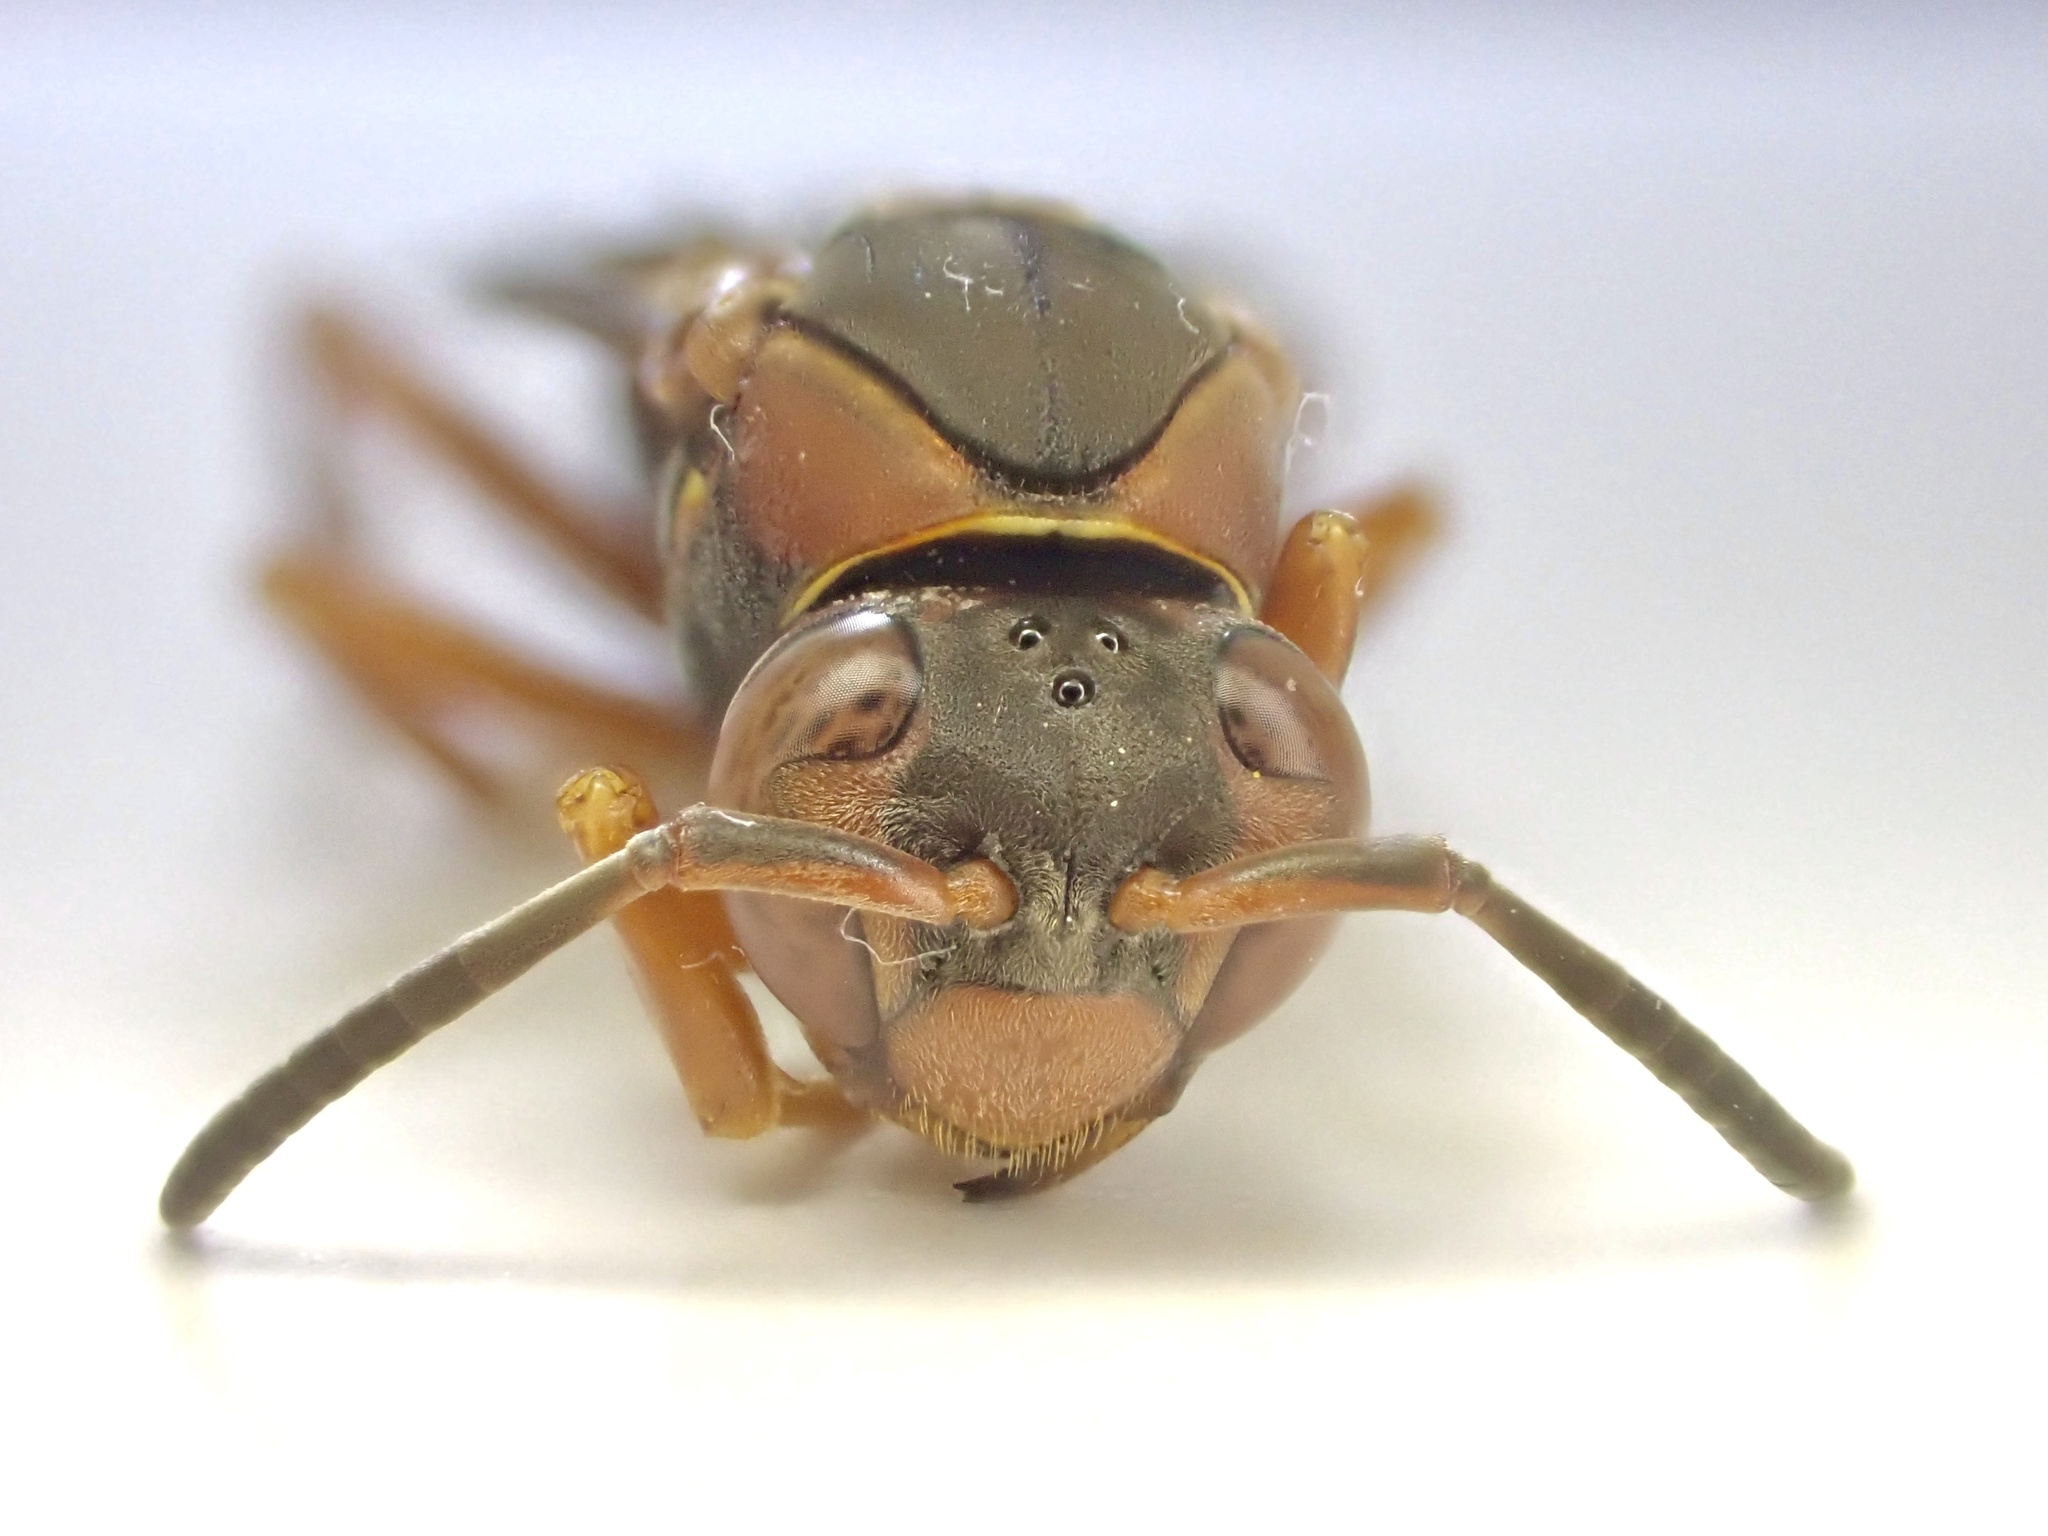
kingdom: Animalia
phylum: Arthropoda
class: Insecta
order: Hymenoptera
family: Eumenidae
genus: Polistes
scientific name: Polistes fuscatus
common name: Dark paper wasp
